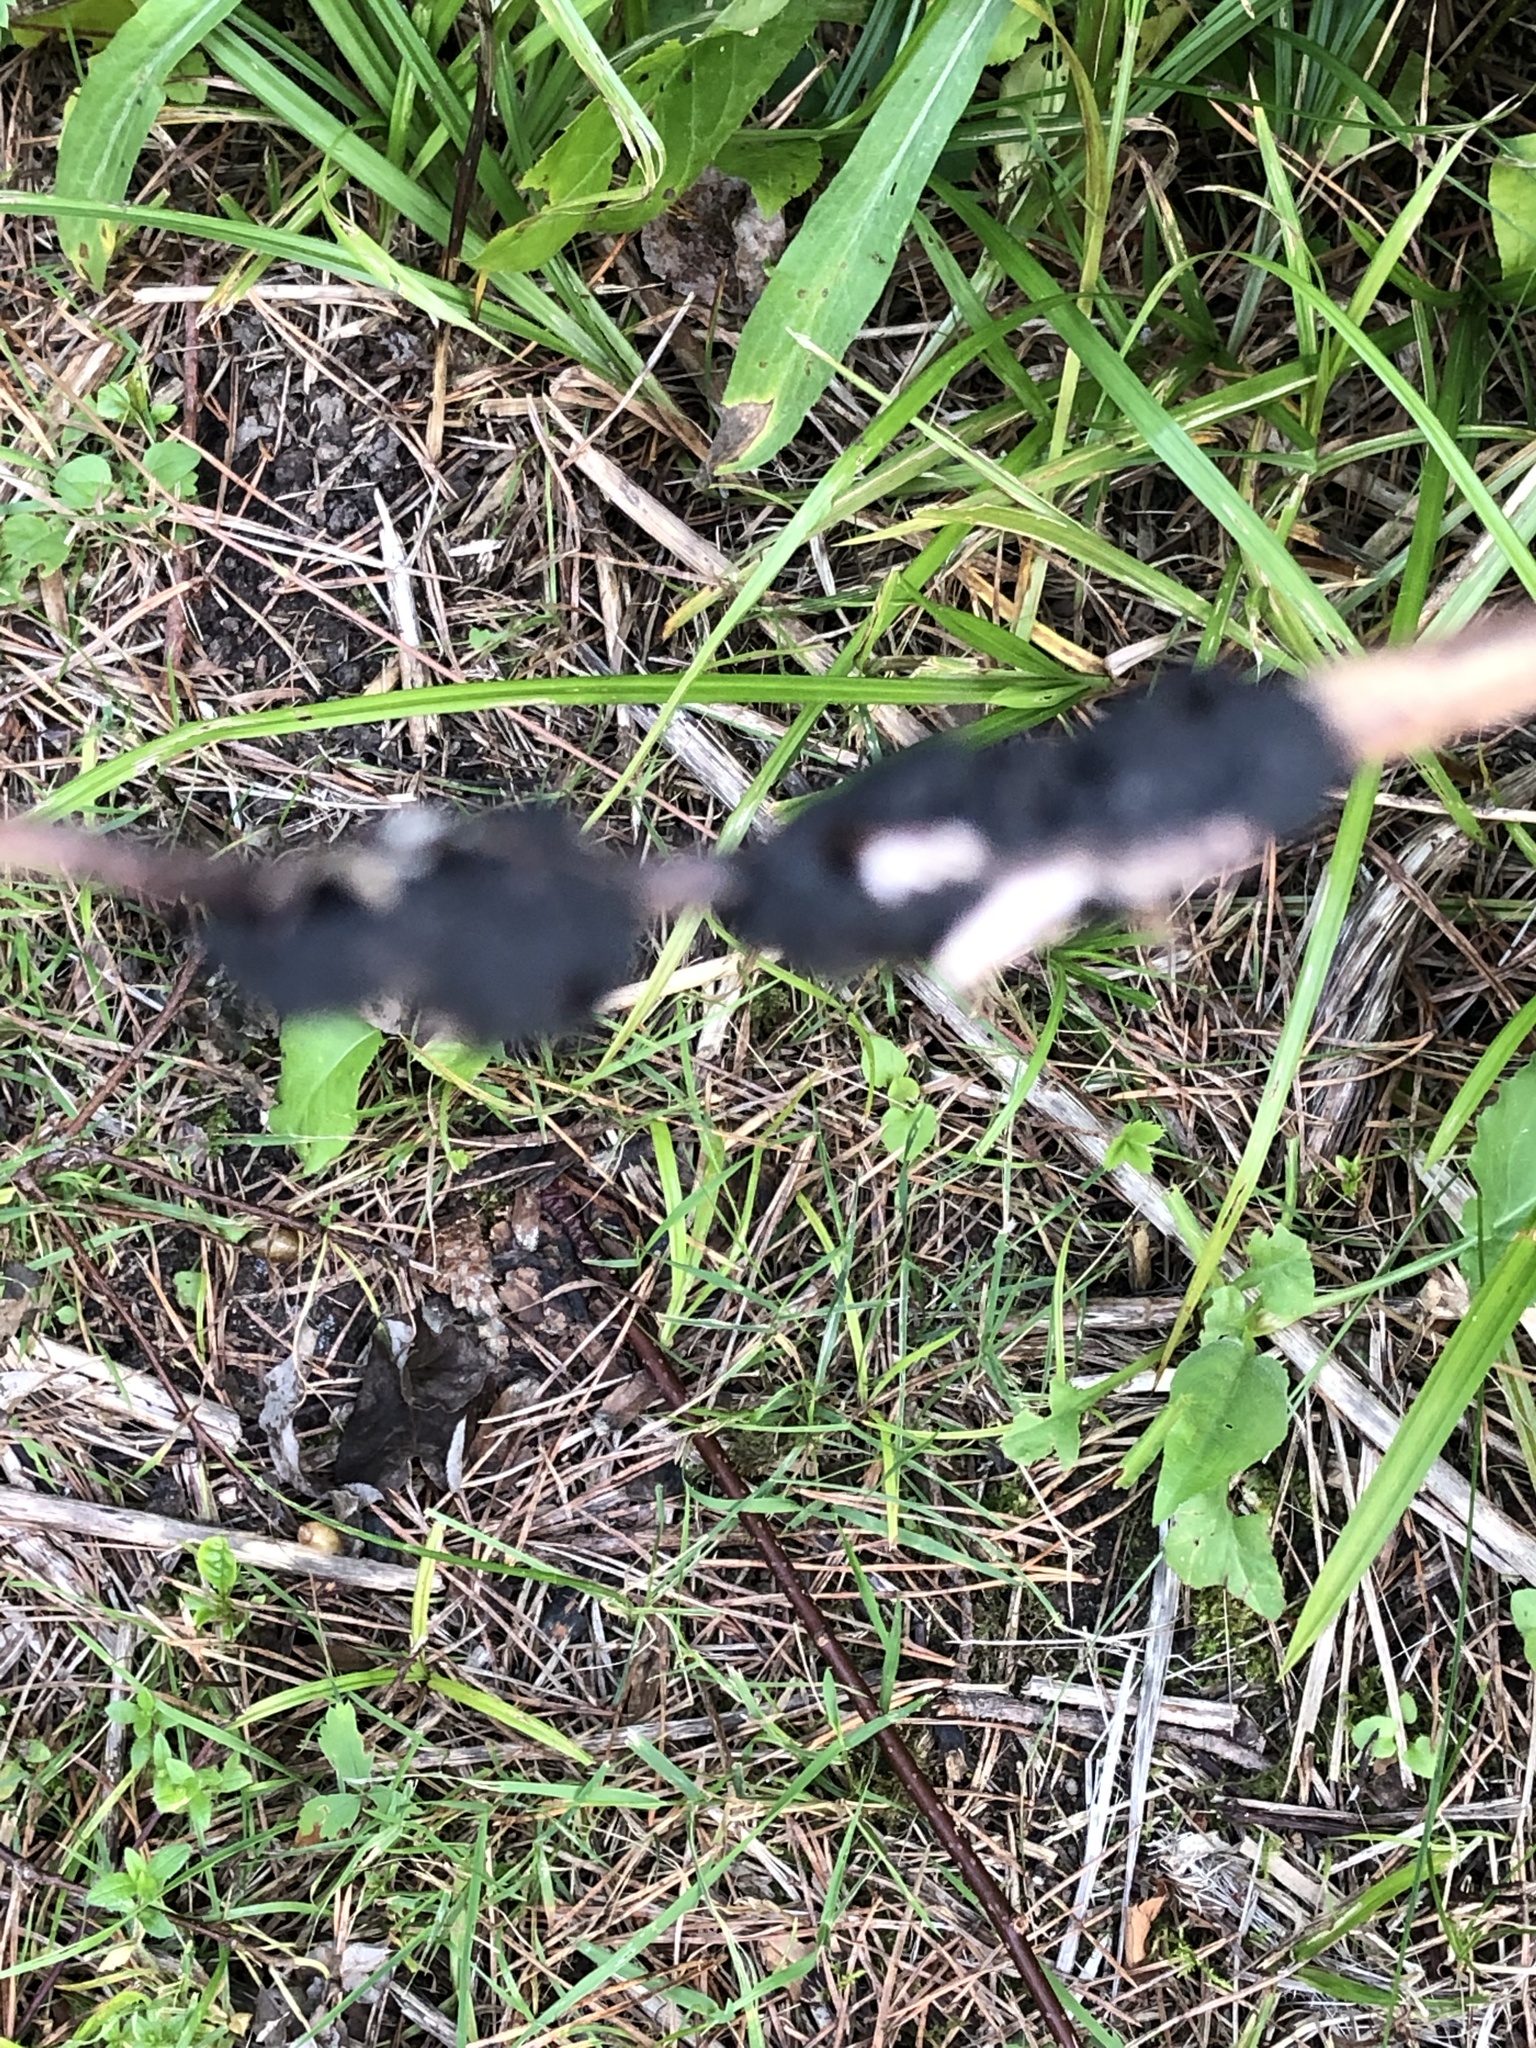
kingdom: Fungi
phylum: Ascomycota
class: Dothideomycetes
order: Venturiales
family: Venturiaceae
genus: Apiosporina
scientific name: Apiosporina morbosa
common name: Black knot
